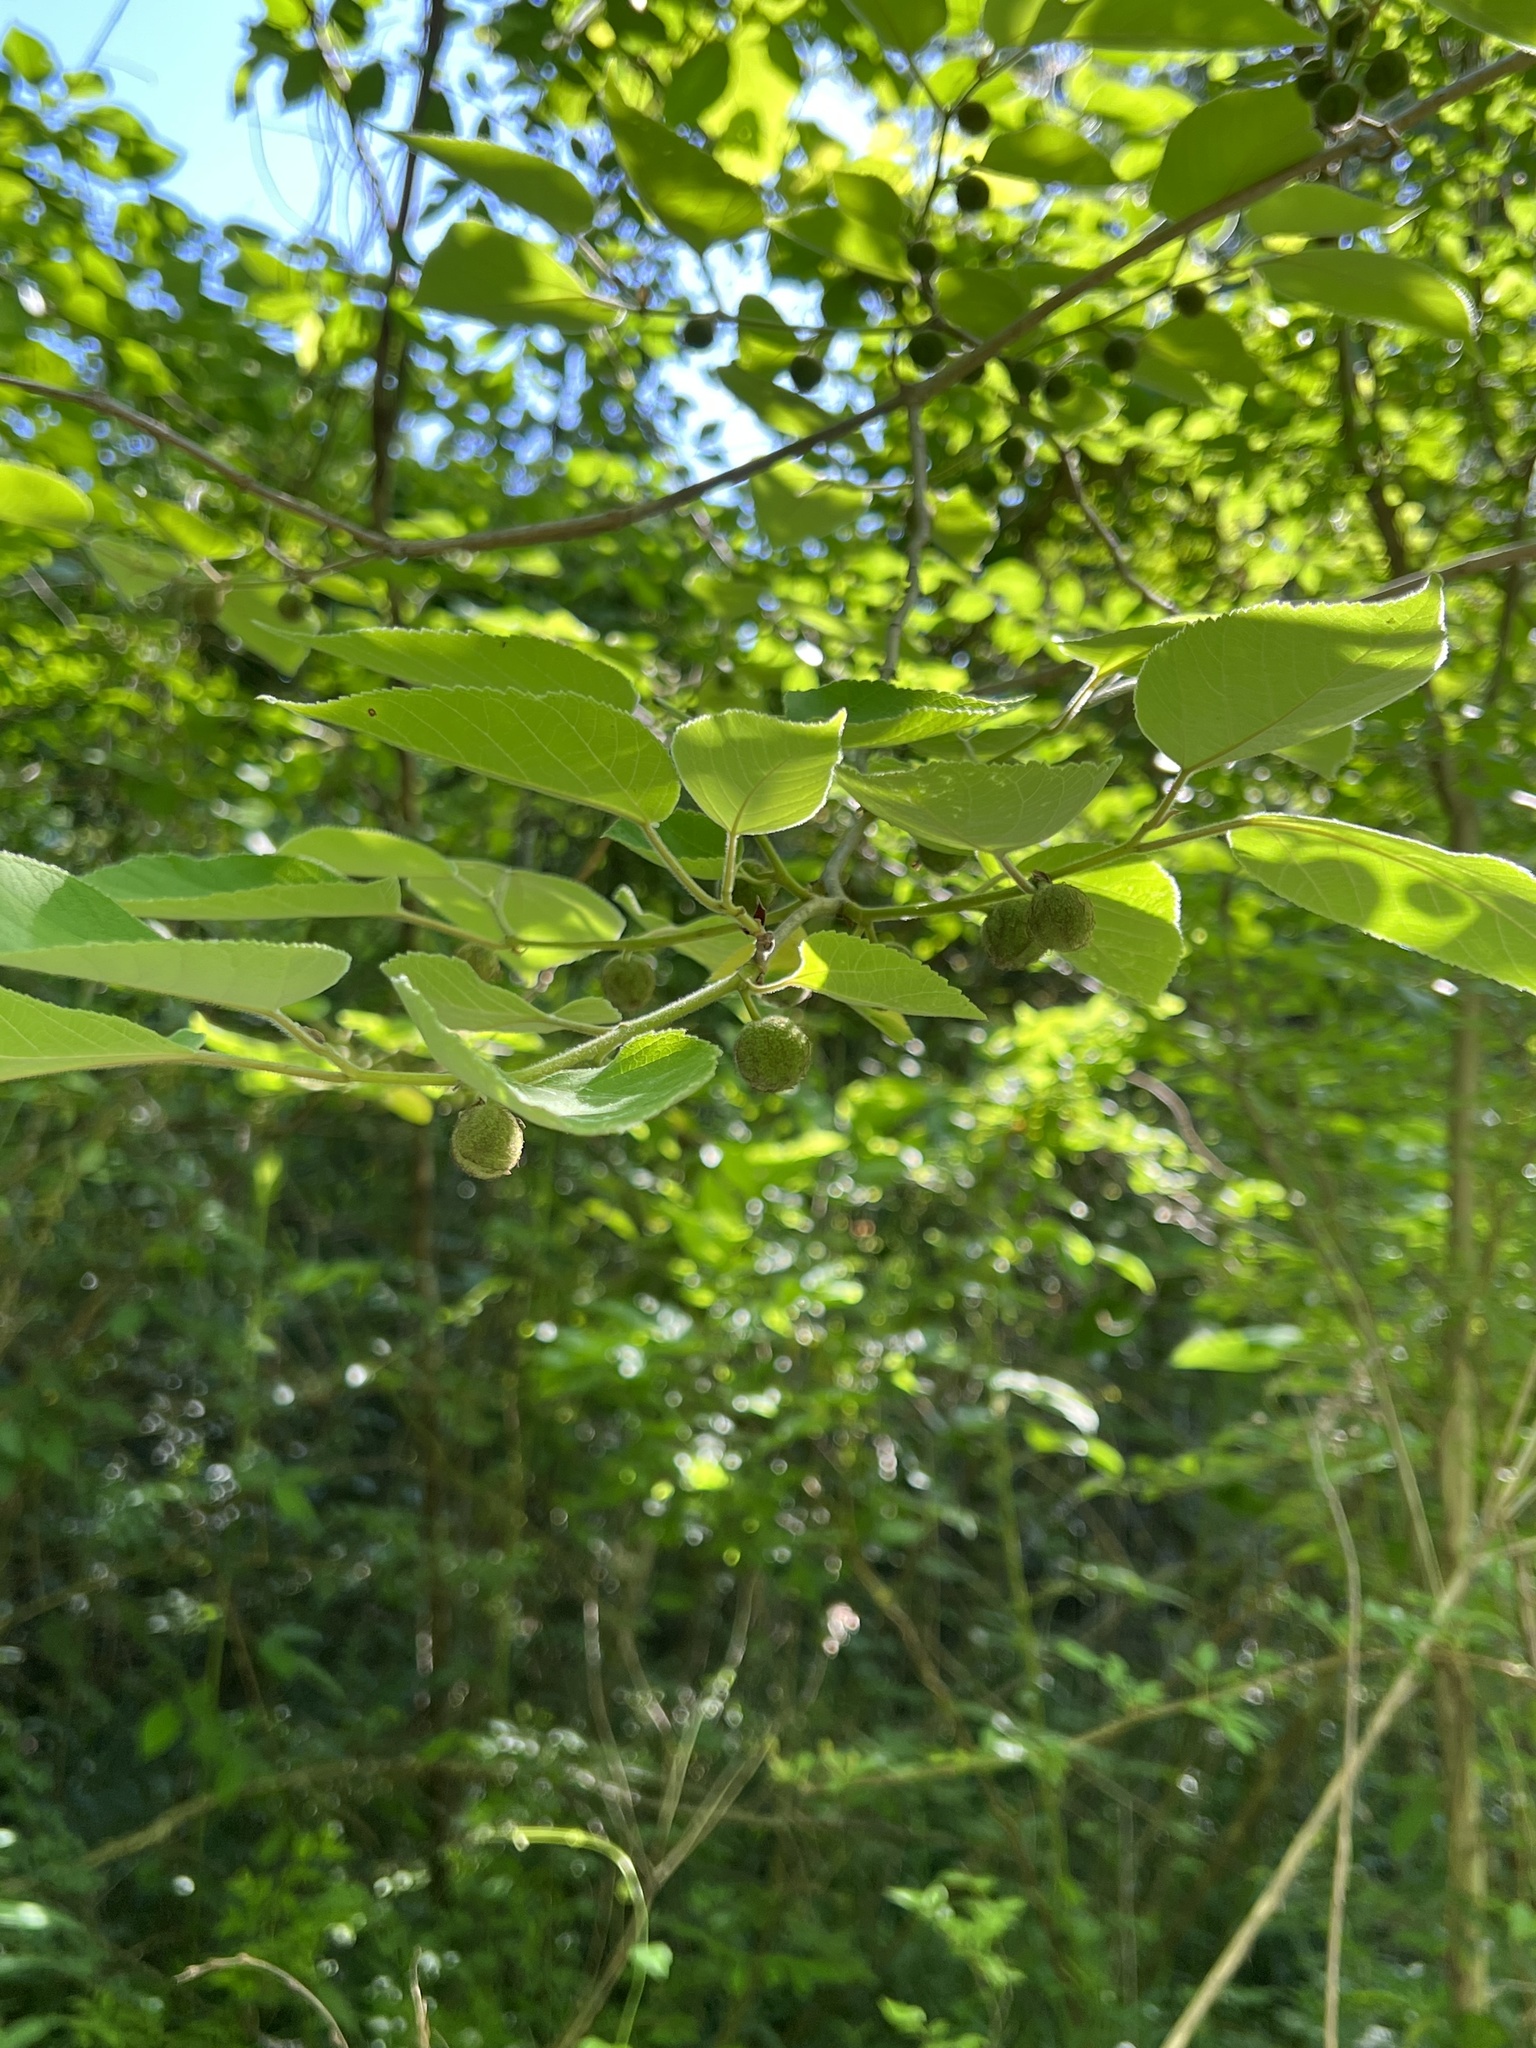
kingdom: Plantae
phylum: Tracheophyta
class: Magnoliopsida
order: Rosales
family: Moraceae
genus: Broussonetia
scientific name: Broussonetia papyrifera
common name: Paper mulberry
